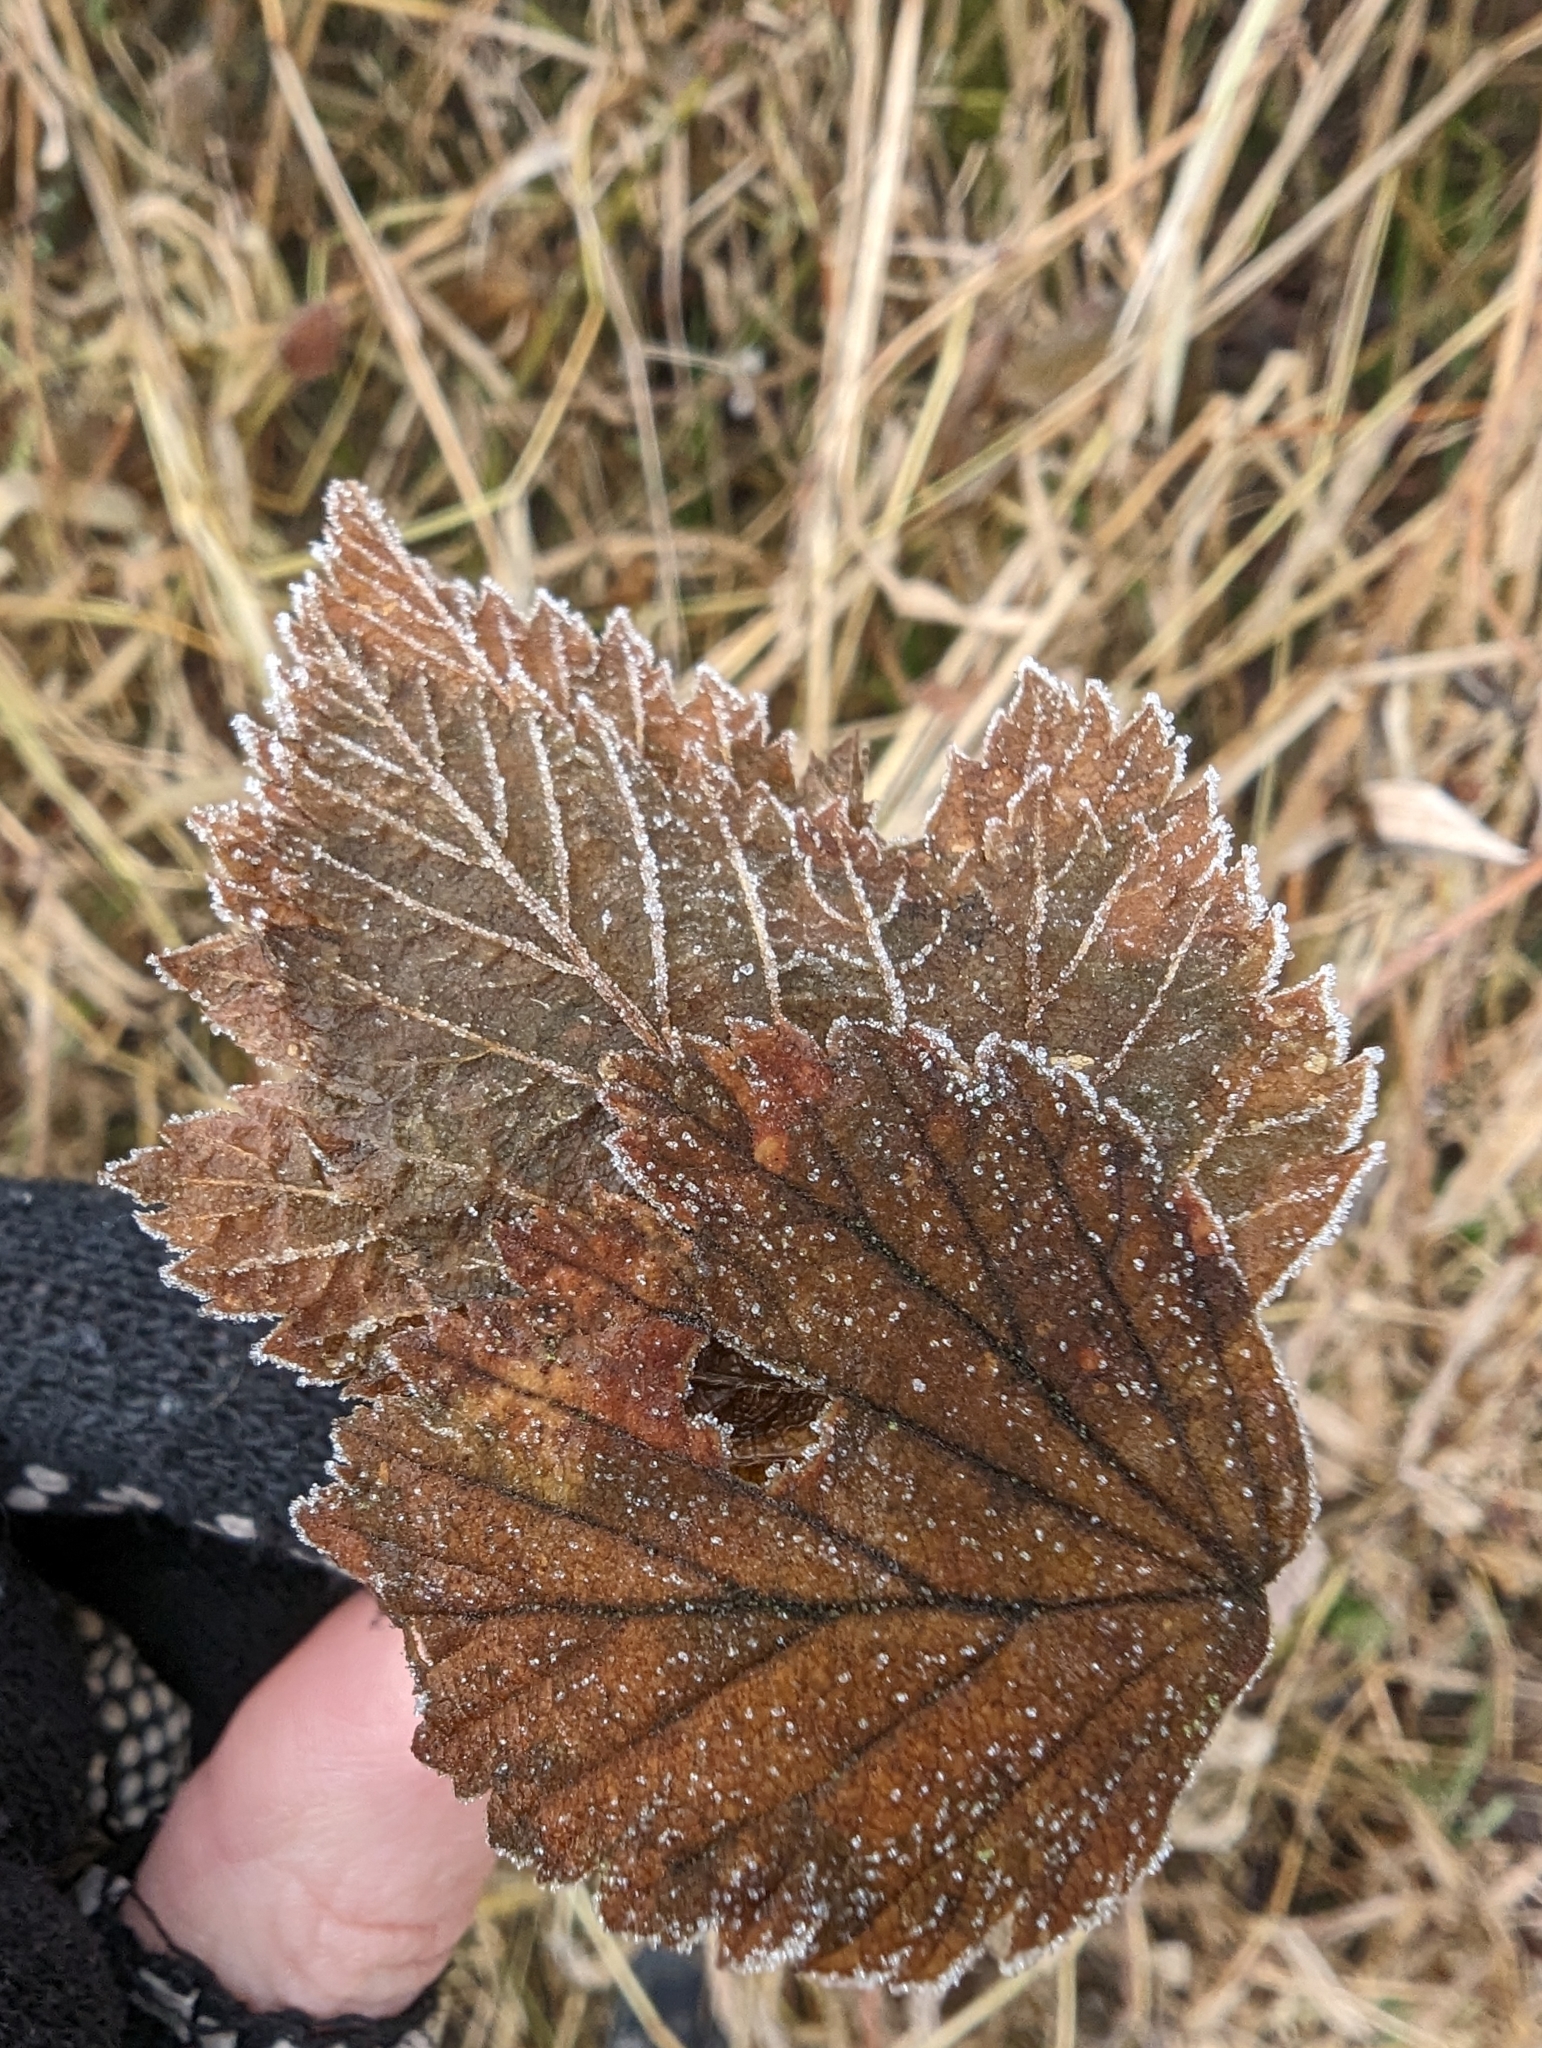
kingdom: Plantae
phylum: Tracheophyta
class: Magnoliopsida
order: Rosales
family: Rosaceae
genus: Rubus
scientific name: Rubus spectabilis
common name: Salmonberry
